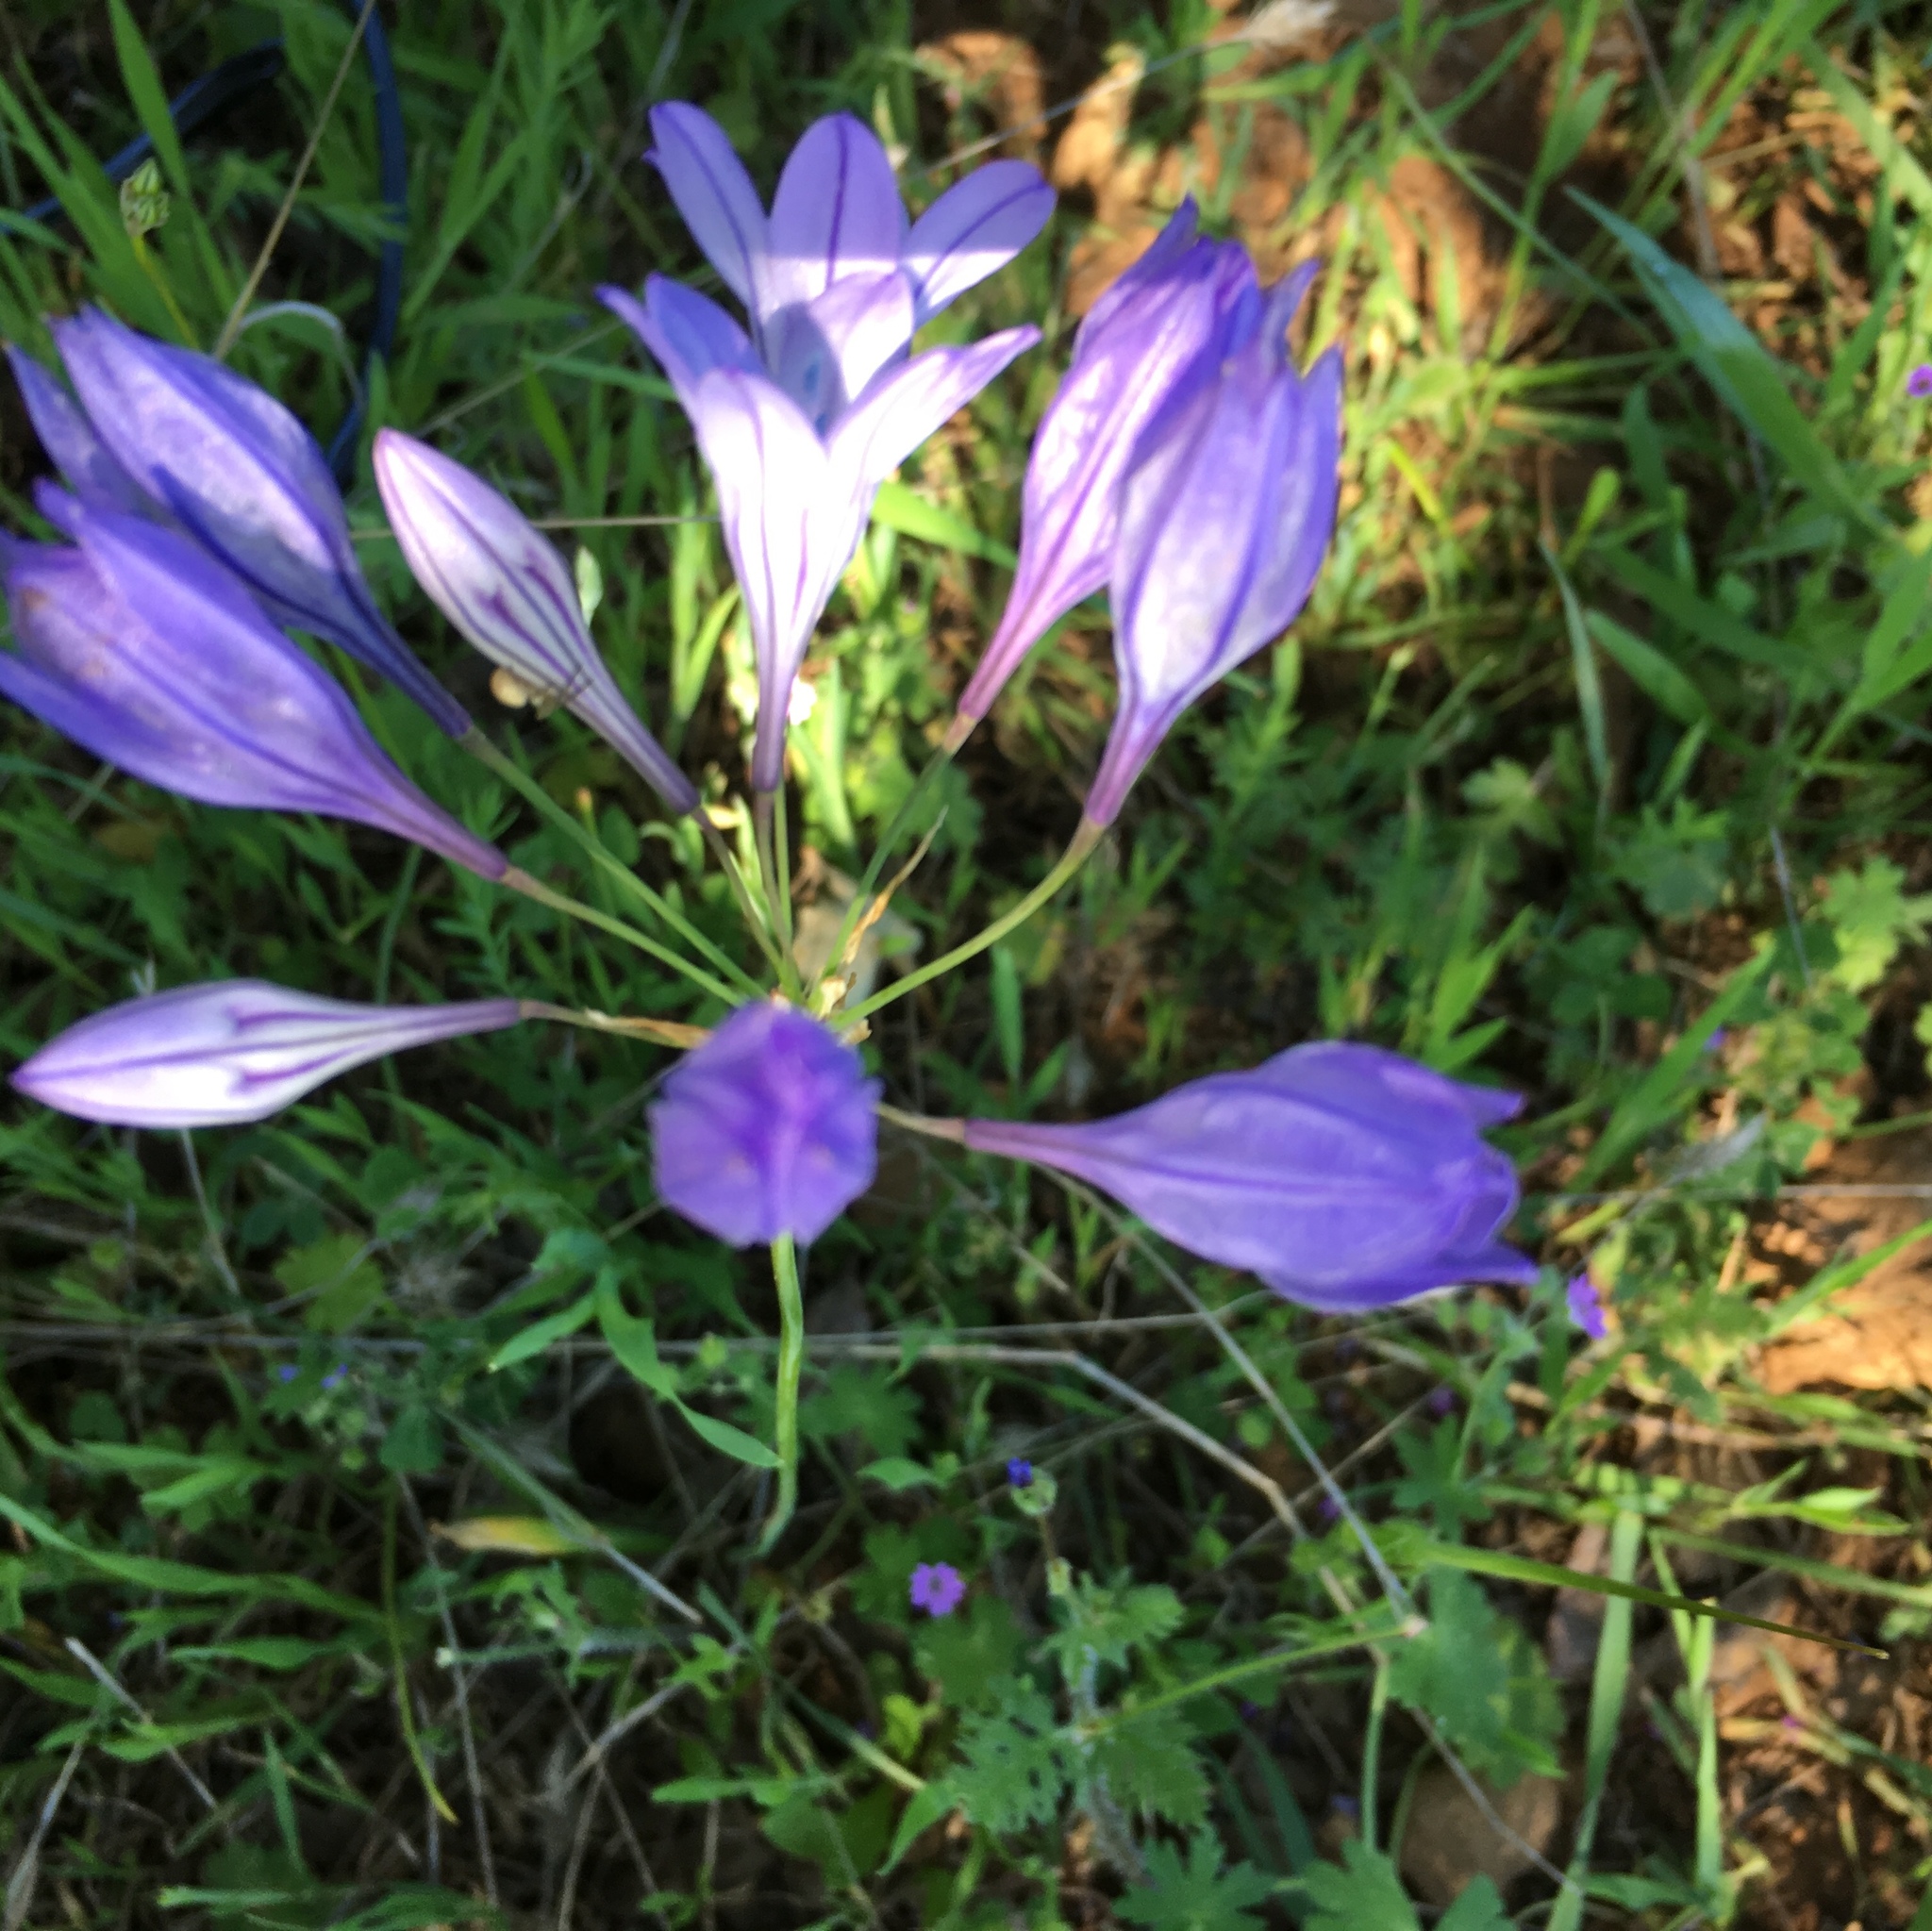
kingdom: Plantae
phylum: Tracheophyta
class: Liliopsida
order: Asparagales
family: Asparagaceae
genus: Triteleia
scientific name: Triteleia laxa
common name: Triplet-lily
